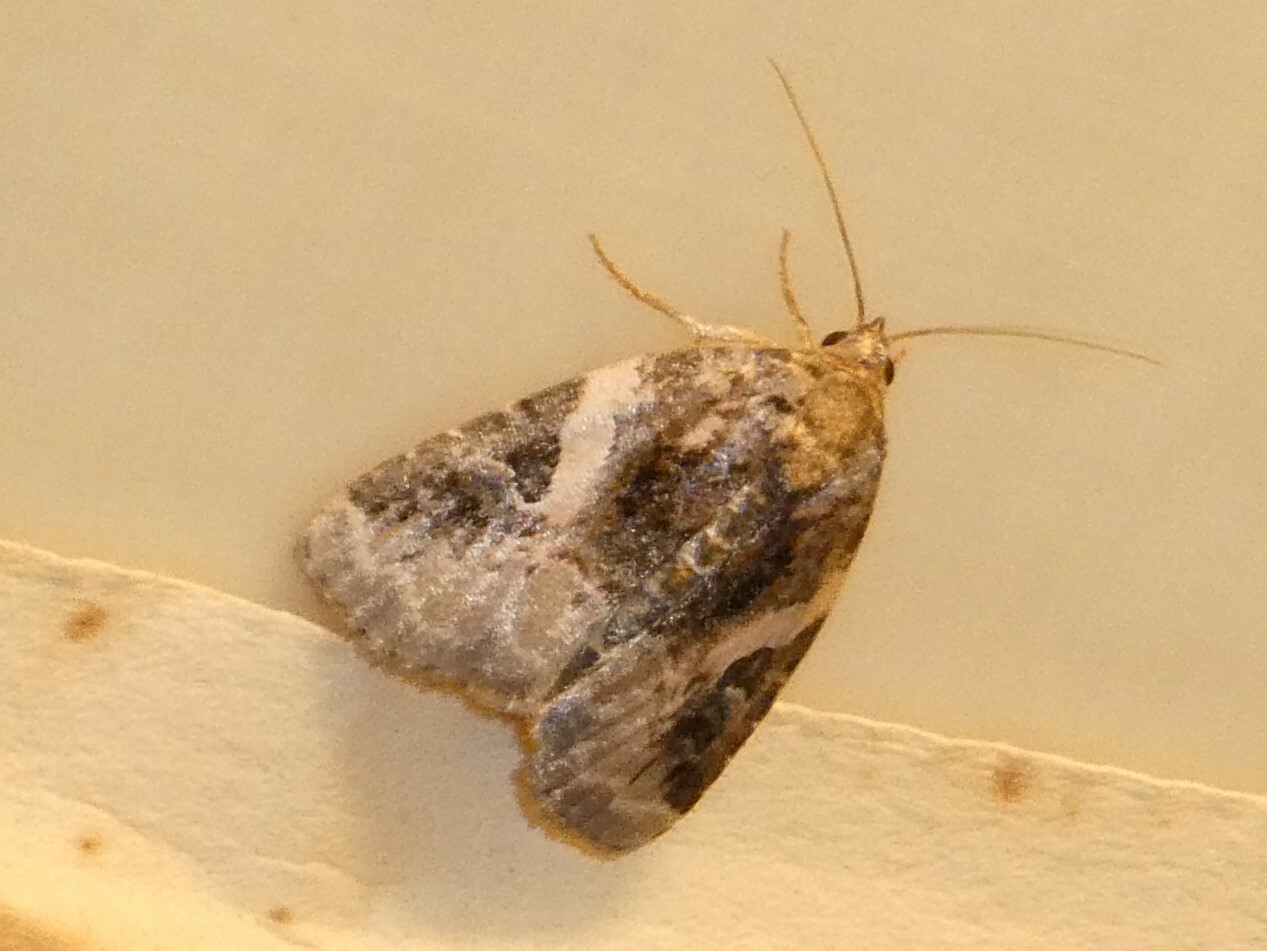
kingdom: Animalia
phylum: Arthropoda
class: Insecta
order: Lepidoptera
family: Noctuidae
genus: Pseudeustrotia
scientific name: Pseudeustrotia carneola
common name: Pink-barred lithacodia moth
